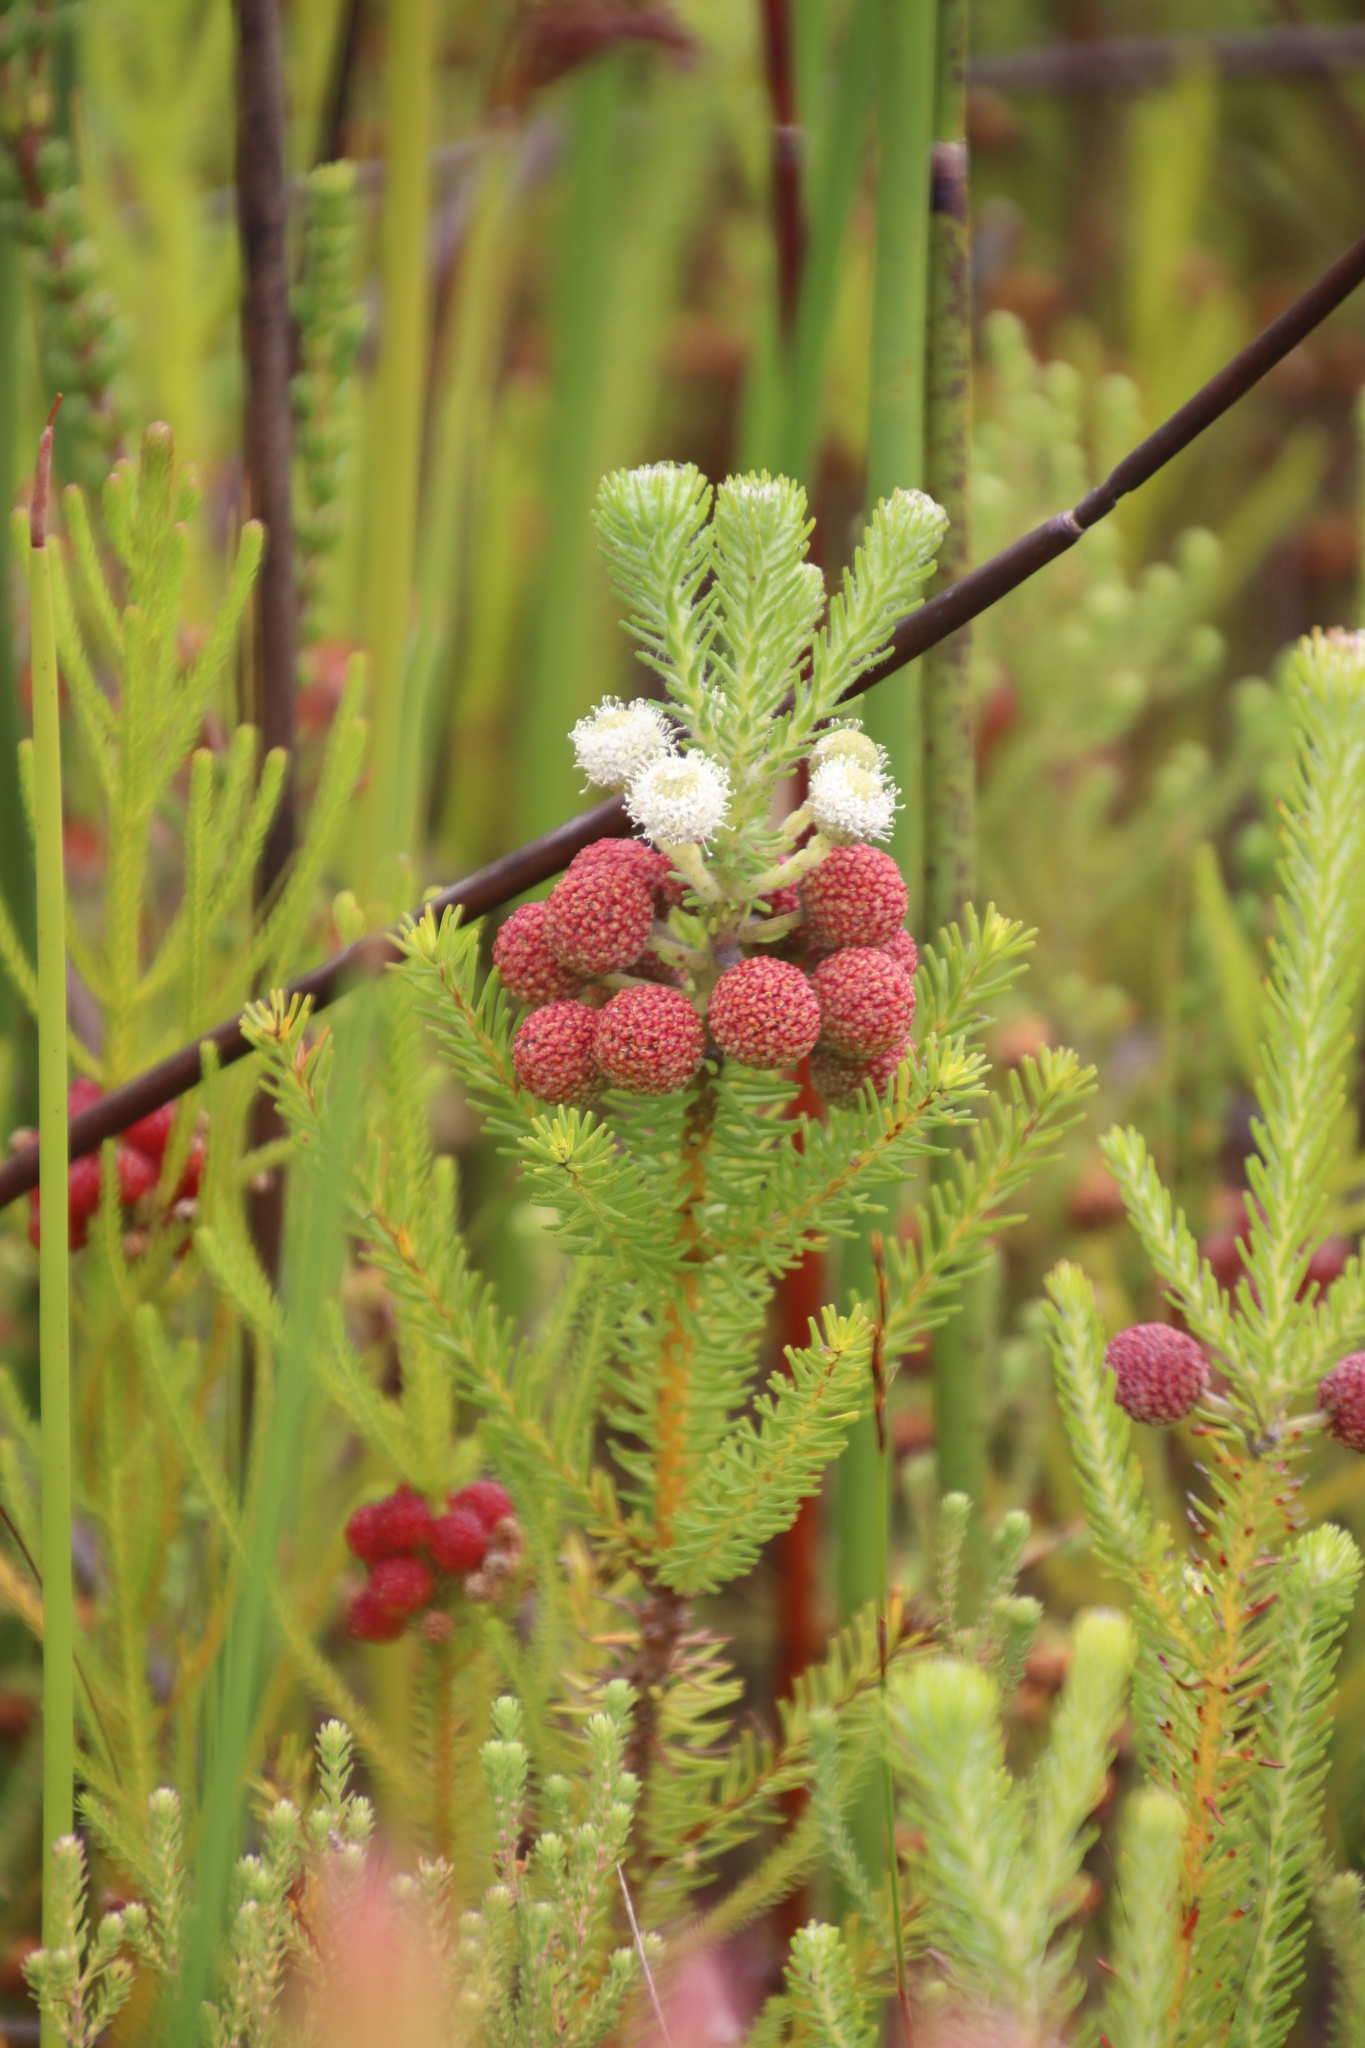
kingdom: Plantae
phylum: Tracheophyta
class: Magnoliopsida
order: Bruniales
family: Bruniaceae
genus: Berzelia
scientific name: Berzelia squarrosa
